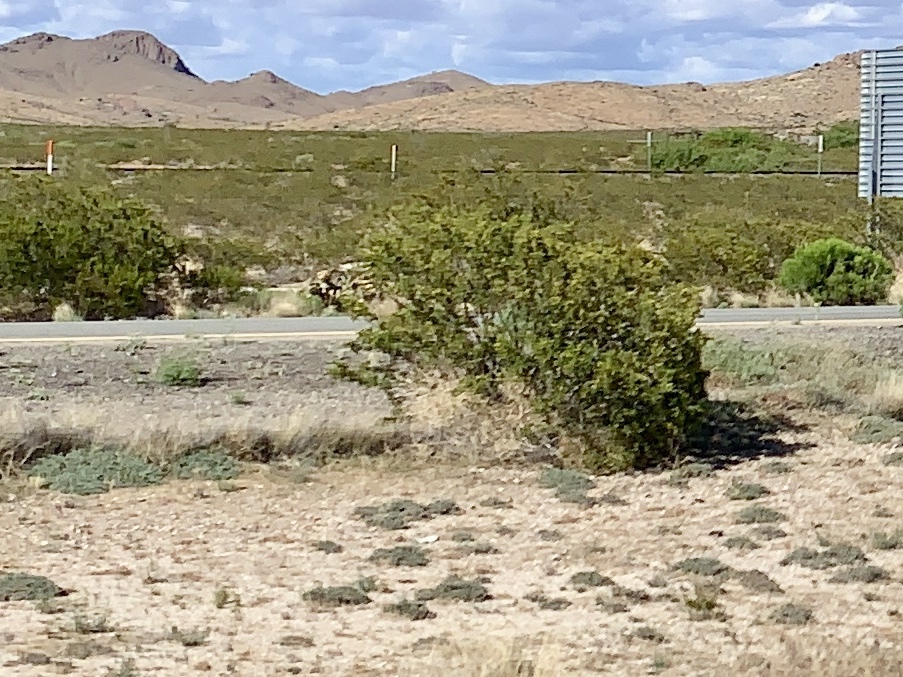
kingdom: Plantae
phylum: Tracheophyta
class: Magnoliopsida
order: Zygophyllales
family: Zygophyllaceae
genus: Larrea
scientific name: Larrea tridentata
